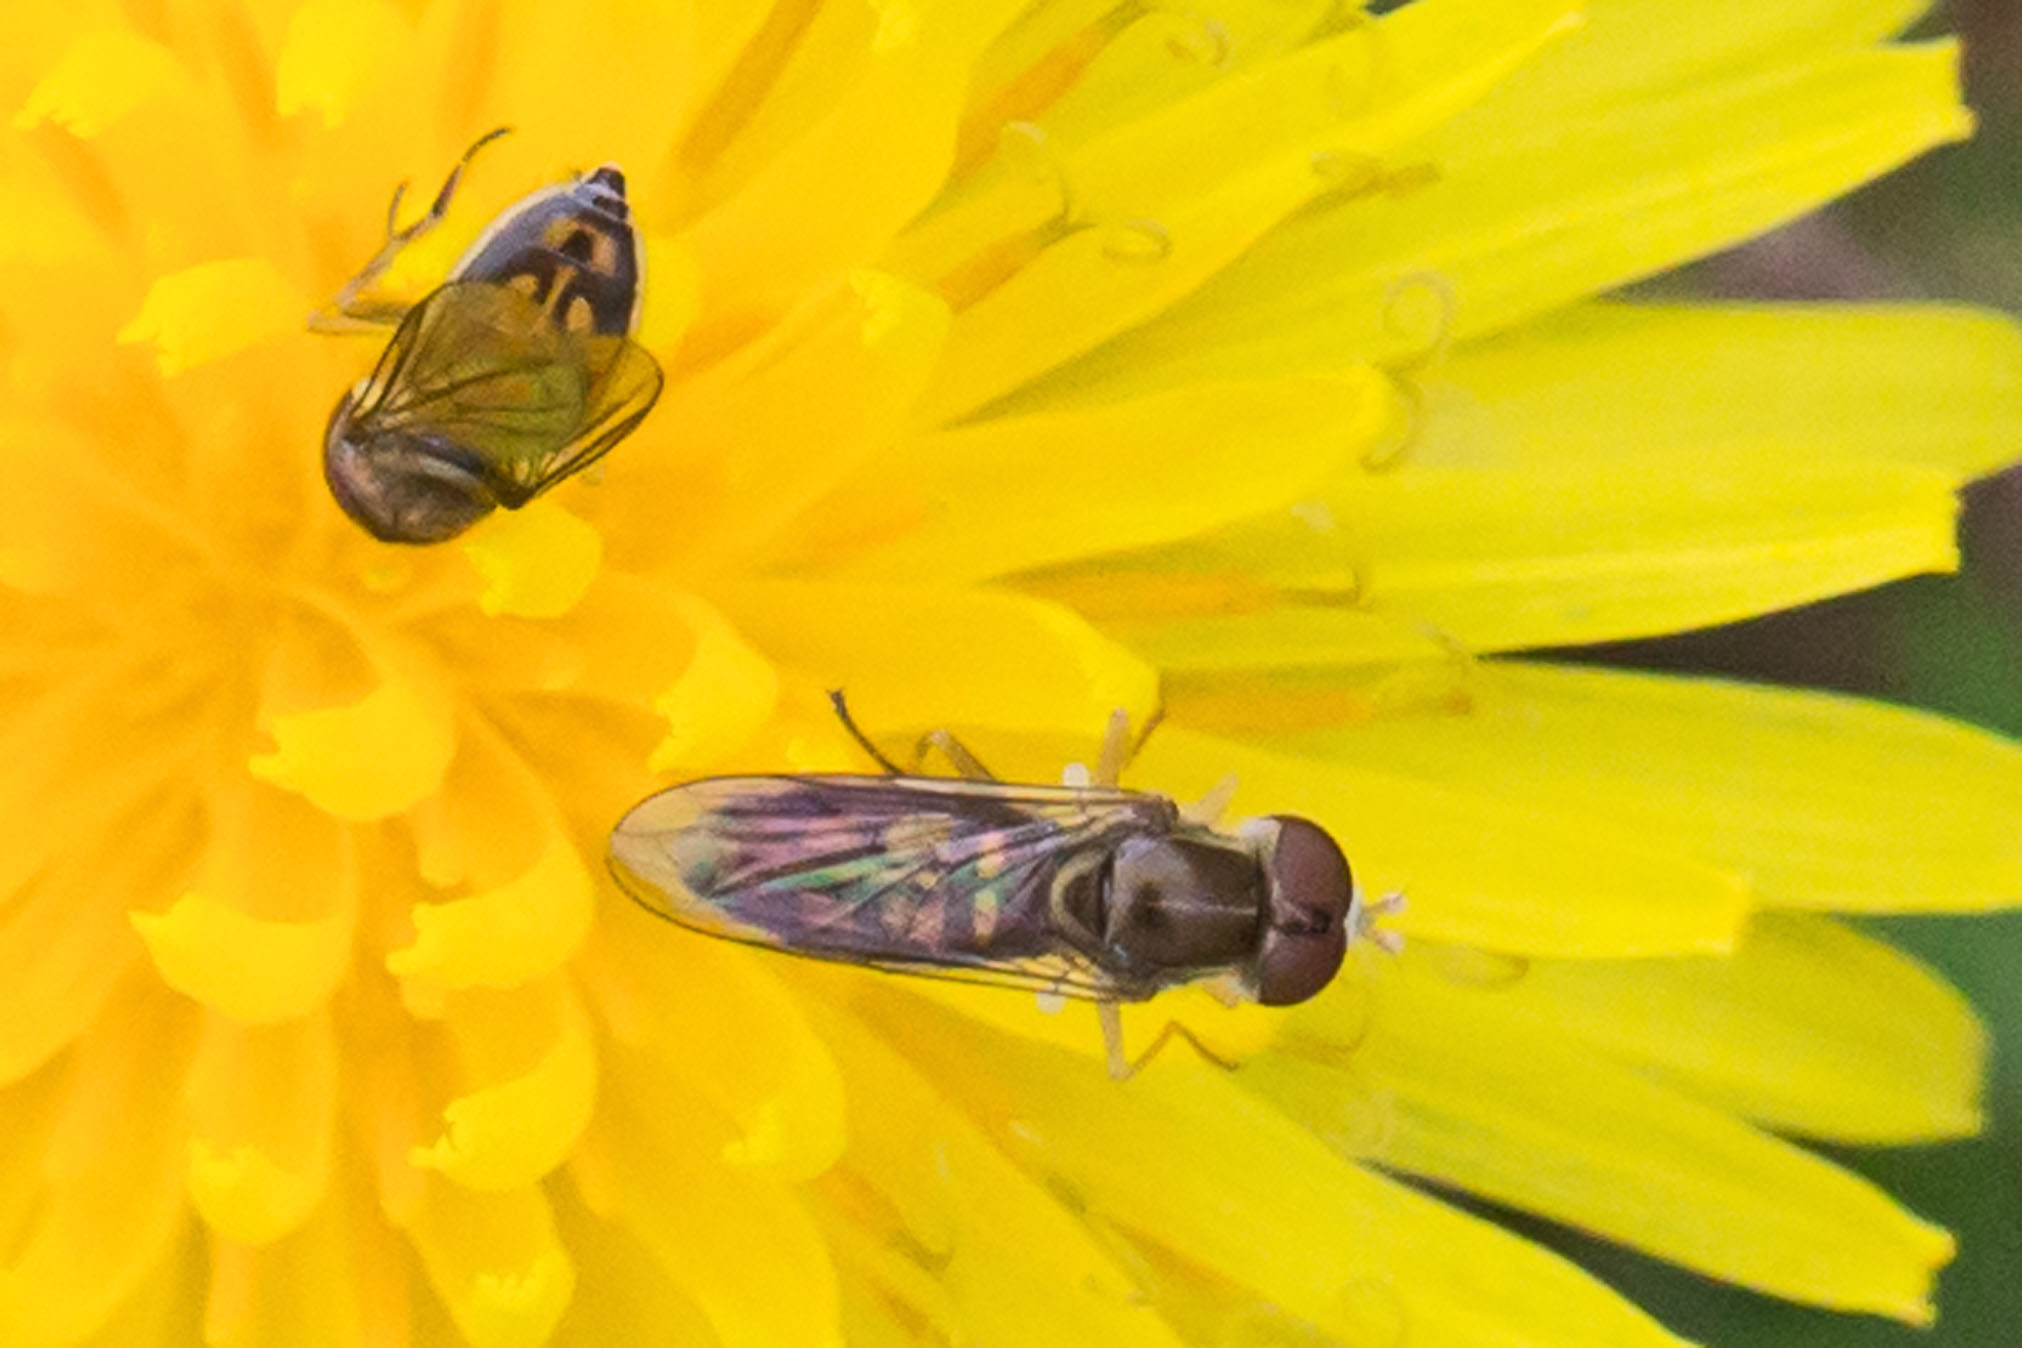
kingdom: Animalia
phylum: Arthropoda
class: Insecta
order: Diptera
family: Syrphidae
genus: Toxomerus
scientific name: Toxomerus marginatus
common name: Syrphid fly
